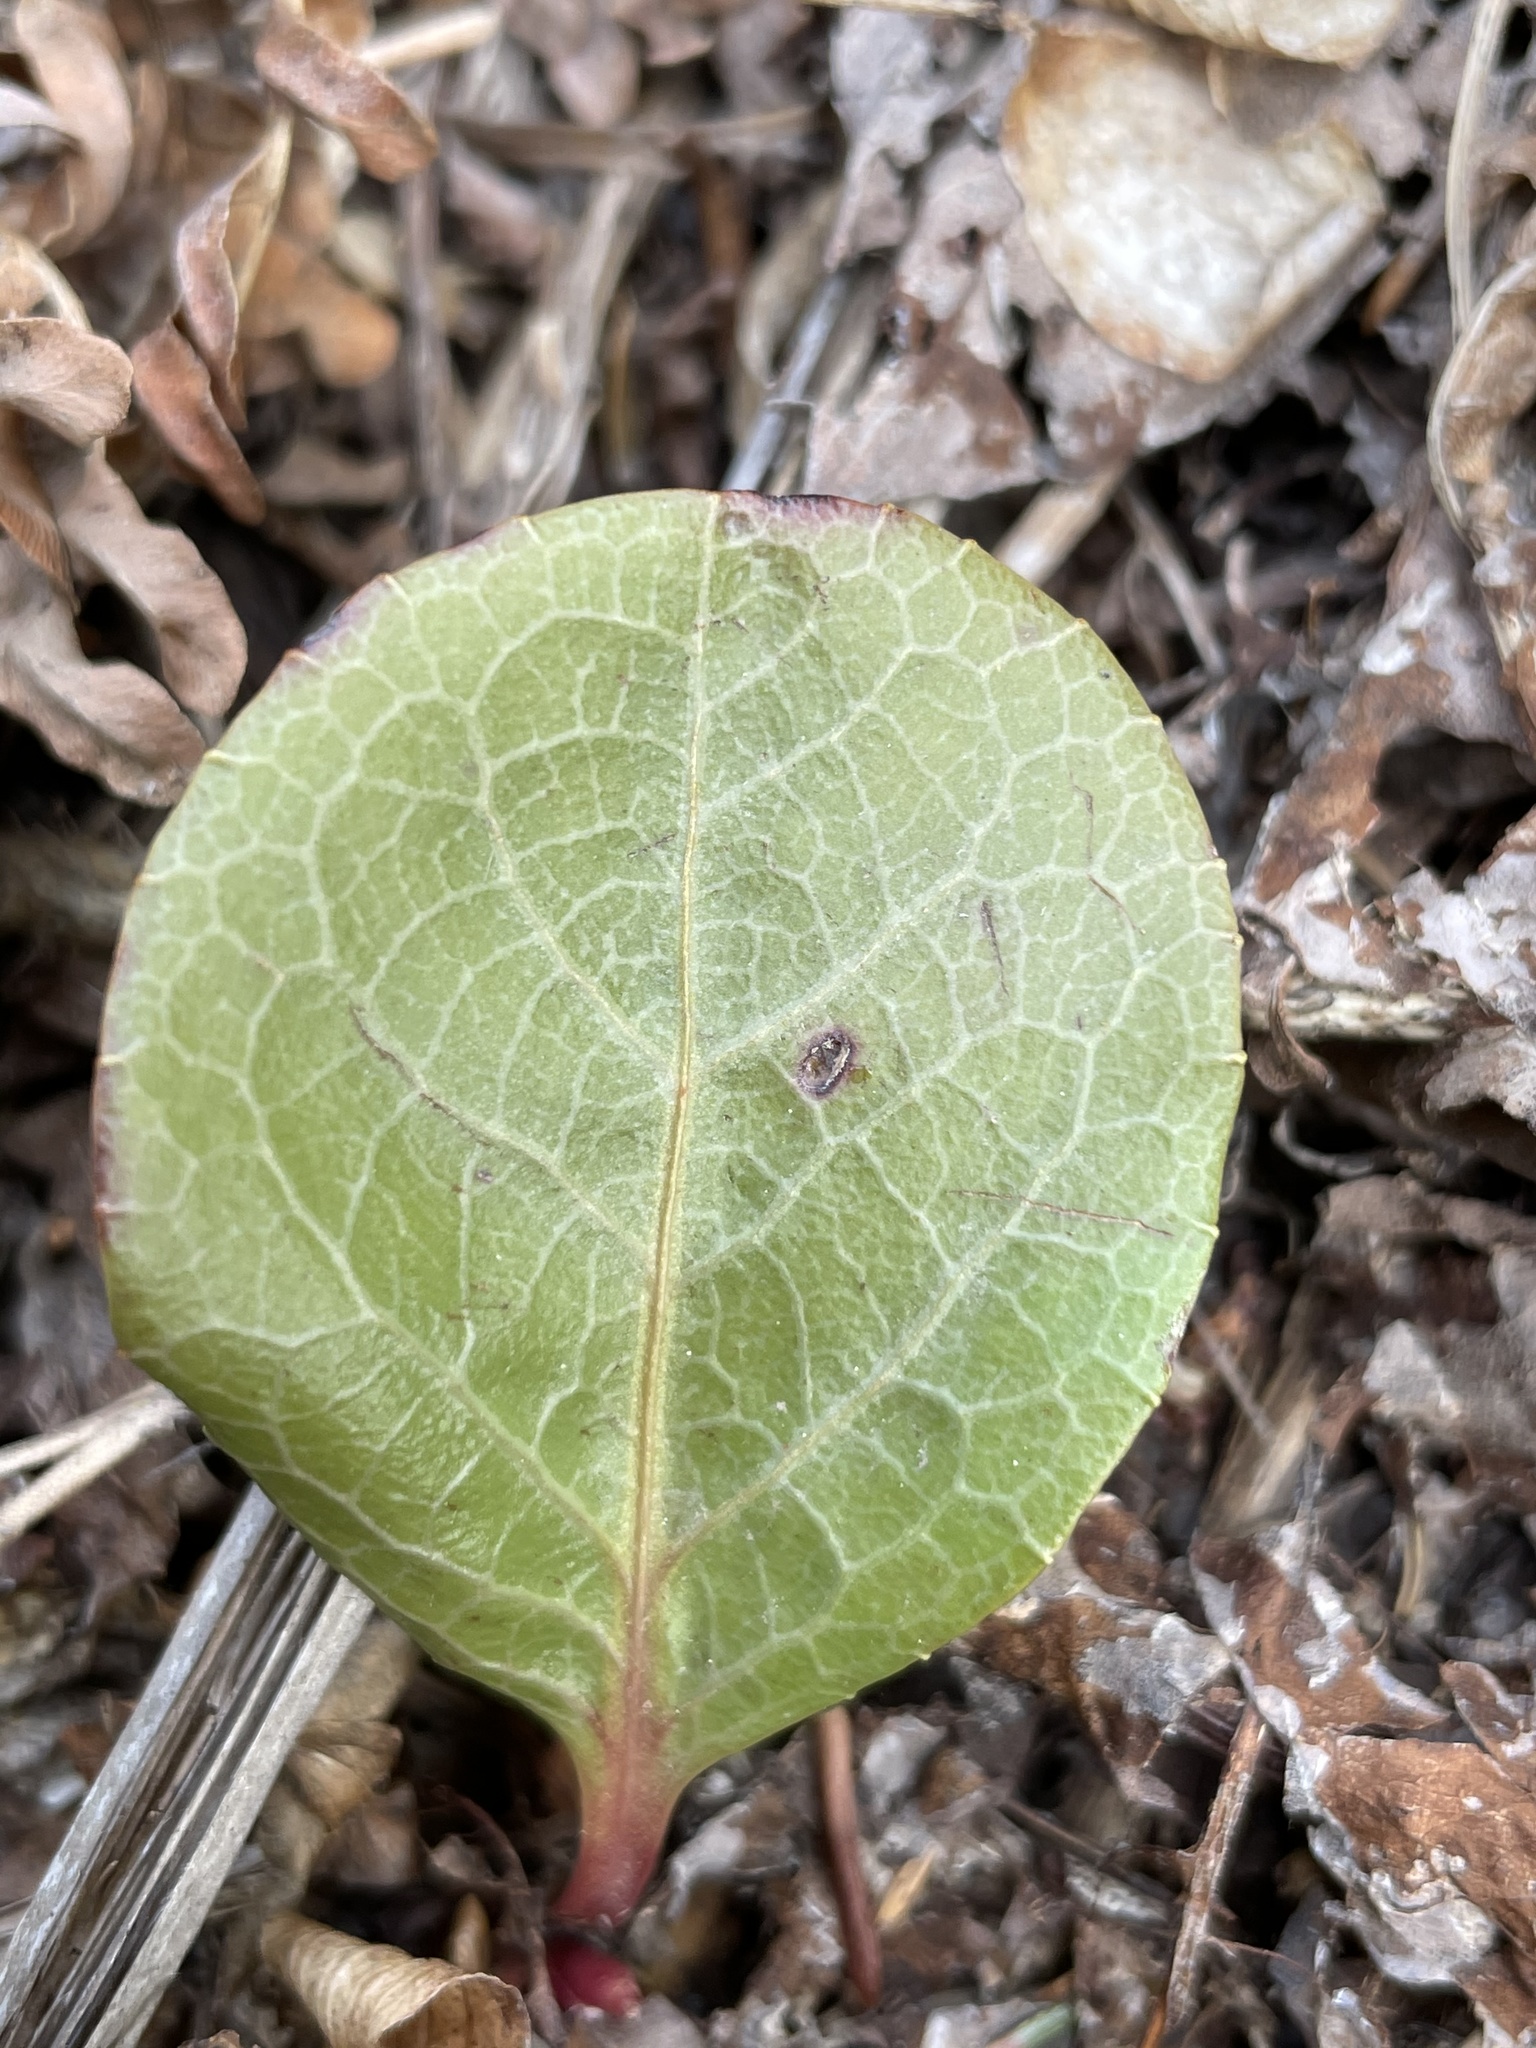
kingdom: Plantae
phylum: Tracheophyta
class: Magnoliopsida
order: Ericales
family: Ericaceae
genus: Pyrola
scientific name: Pyrola americana
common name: American wintergreen
